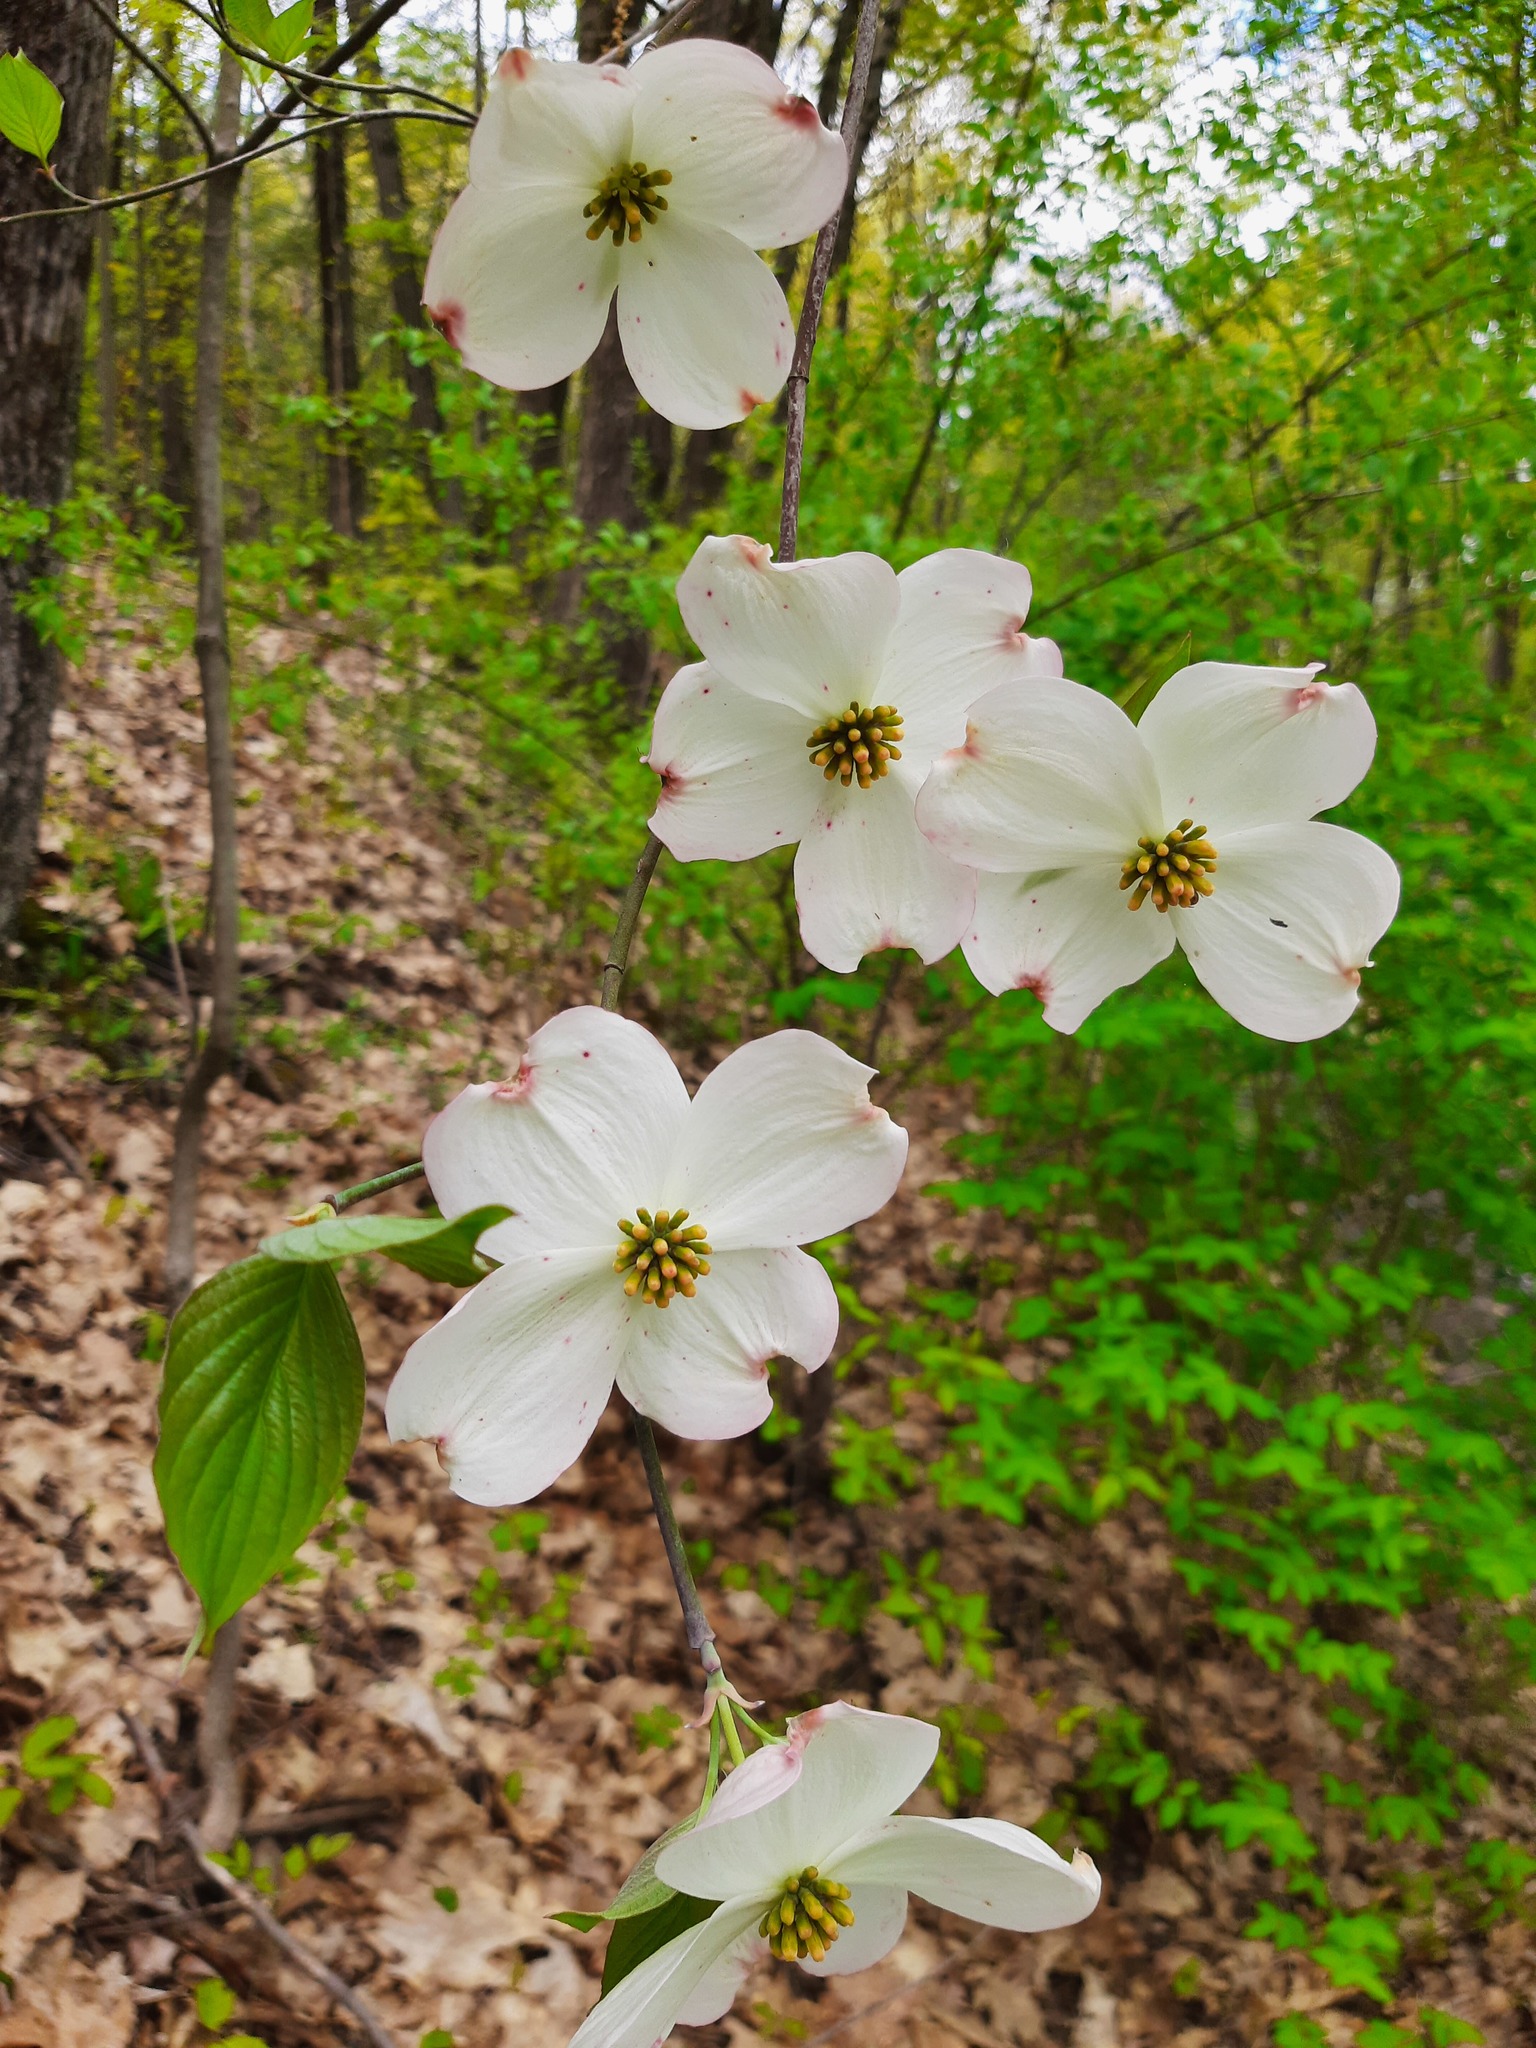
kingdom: Plantae
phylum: Tracheophyta
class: Magnoliopsida
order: Cornales
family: Cornaceae
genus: Cornus
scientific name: Cornus florida
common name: Flowering dogwood
